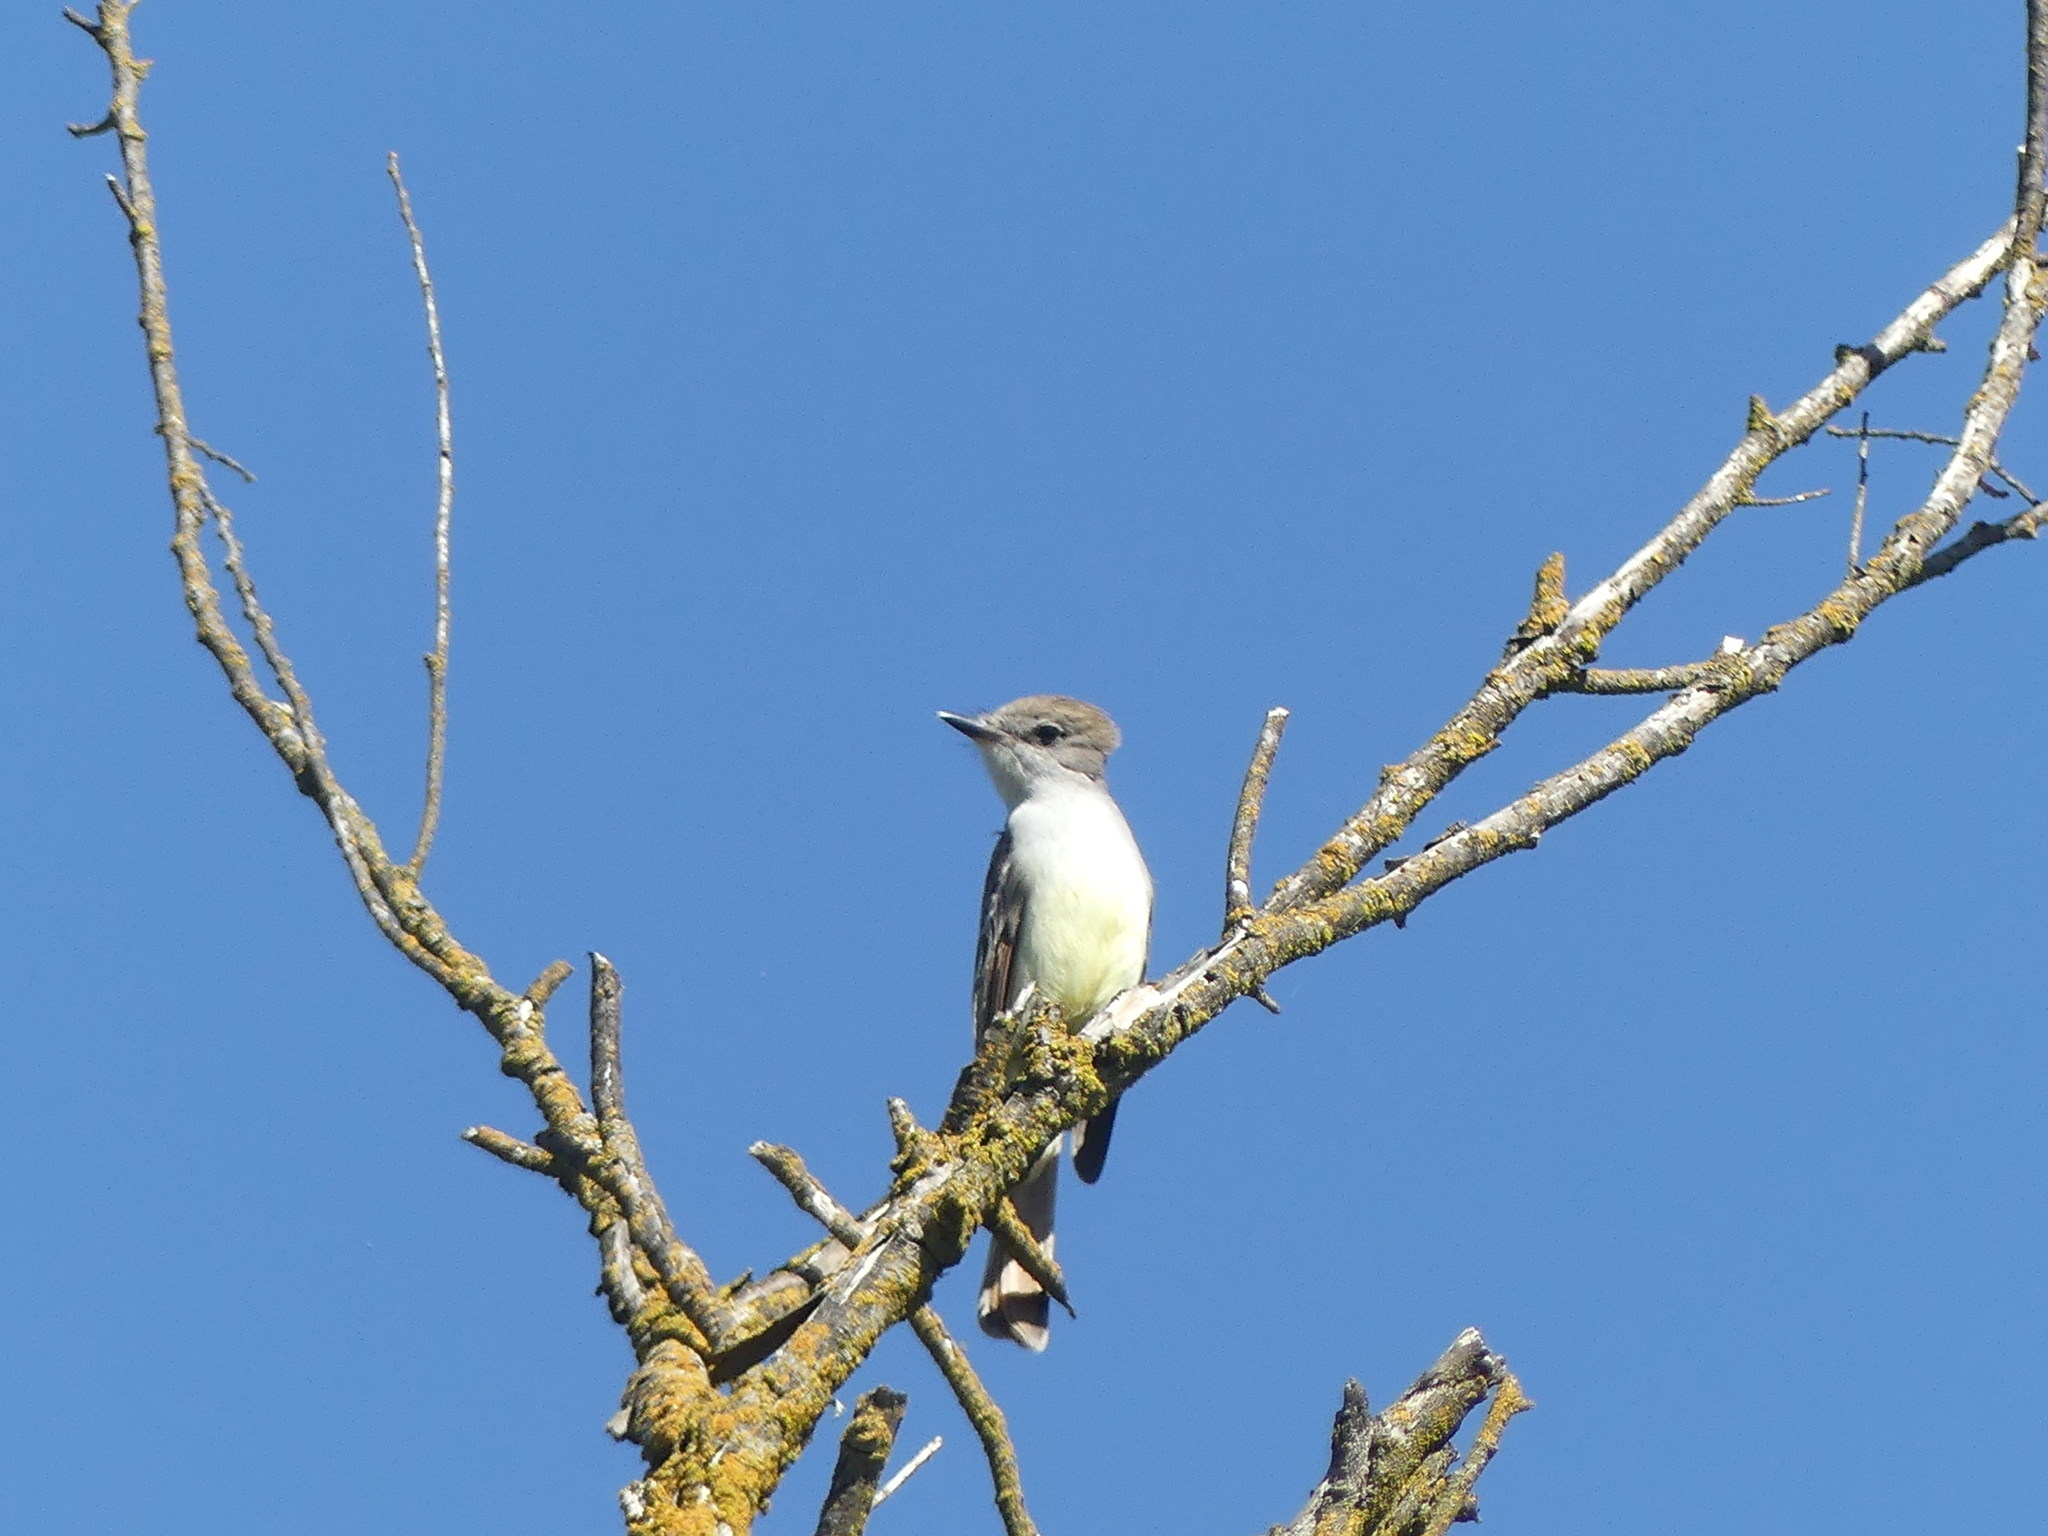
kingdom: Animalia
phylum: Chordata
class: Aves
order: Passeriformes
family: Tyrannidae
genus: Myiarchus
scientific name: Myiarchus cinerascens
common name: Ash-throated flycatcher
